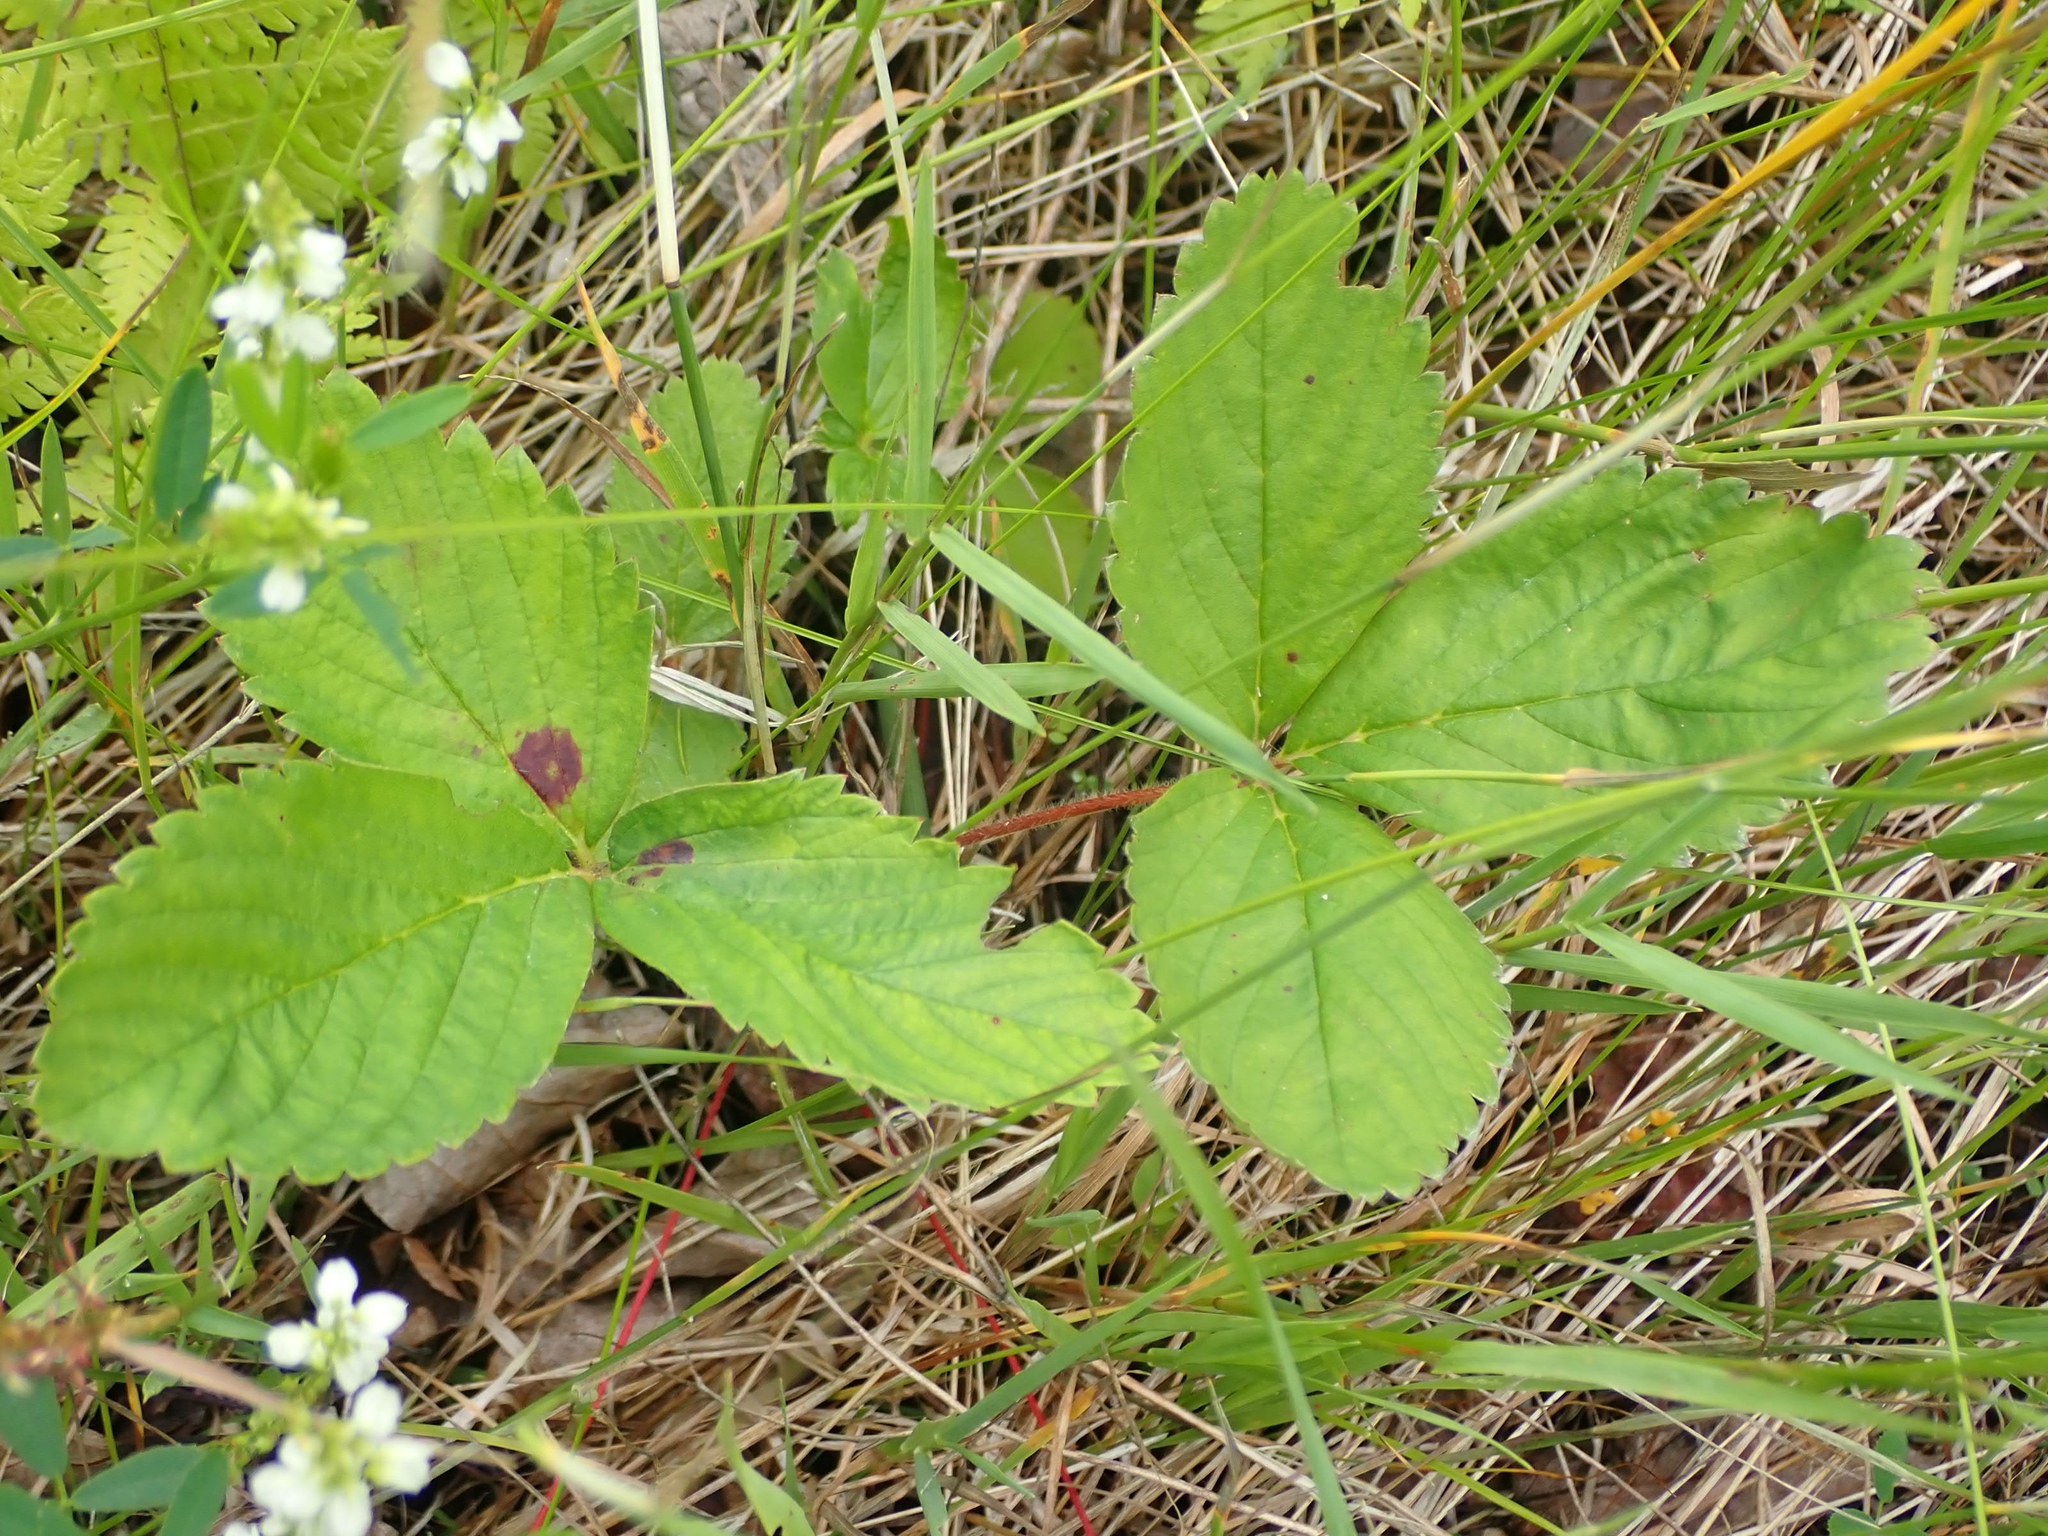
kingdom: Plantae
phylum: Tracheophyta
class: Magnoliopsida
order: Rosales
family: Rosaceae
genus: Fragaria
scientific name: Fragaria virginiana
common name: Thickleaved wild strawberry
